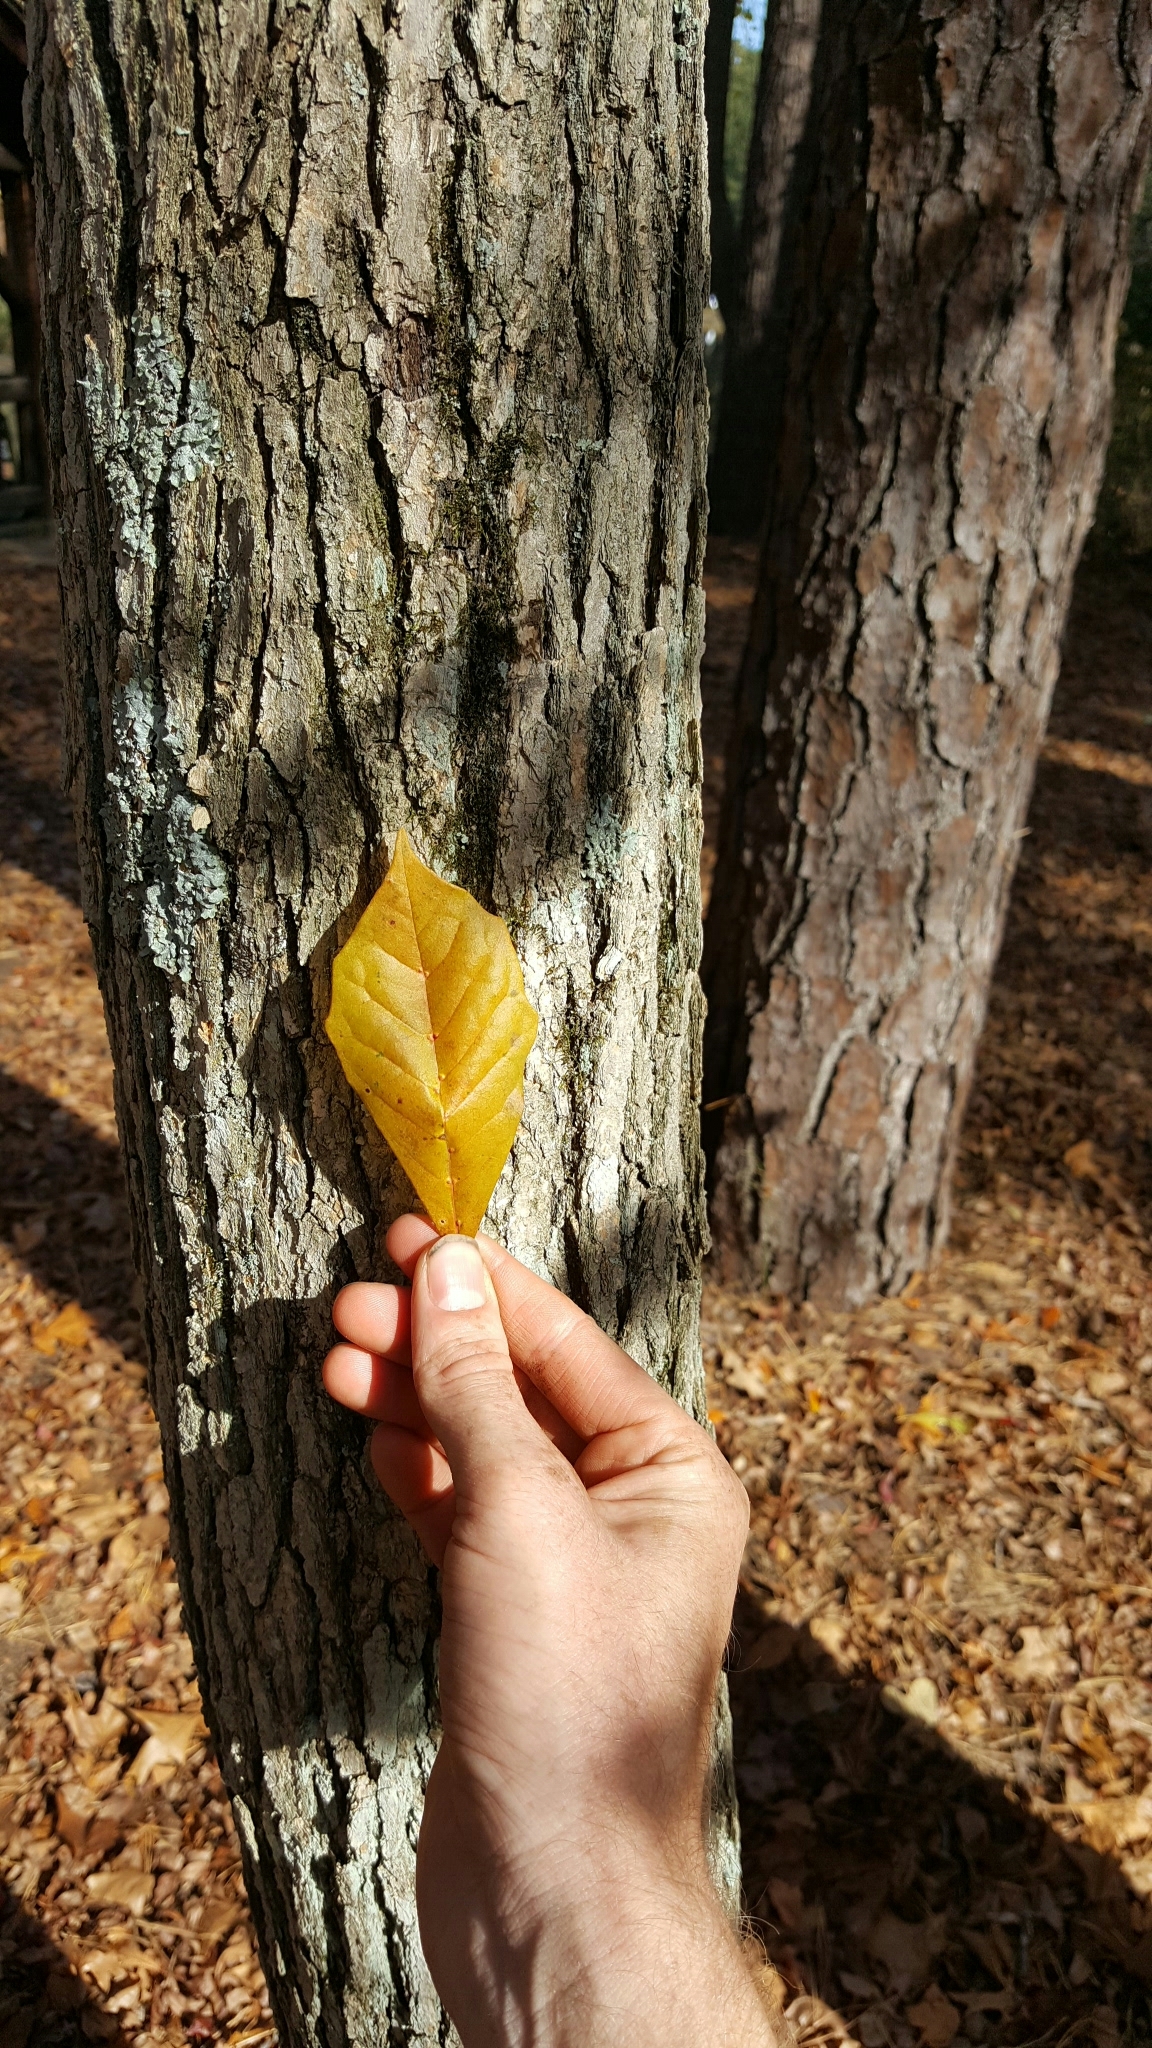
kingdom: Plantae
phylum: Tracheophyta
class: Magnoliopsida
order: Cornales
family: Nyssaceae
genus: Nyssa
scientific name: Nyssa sylvatica
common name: Black tupelo
